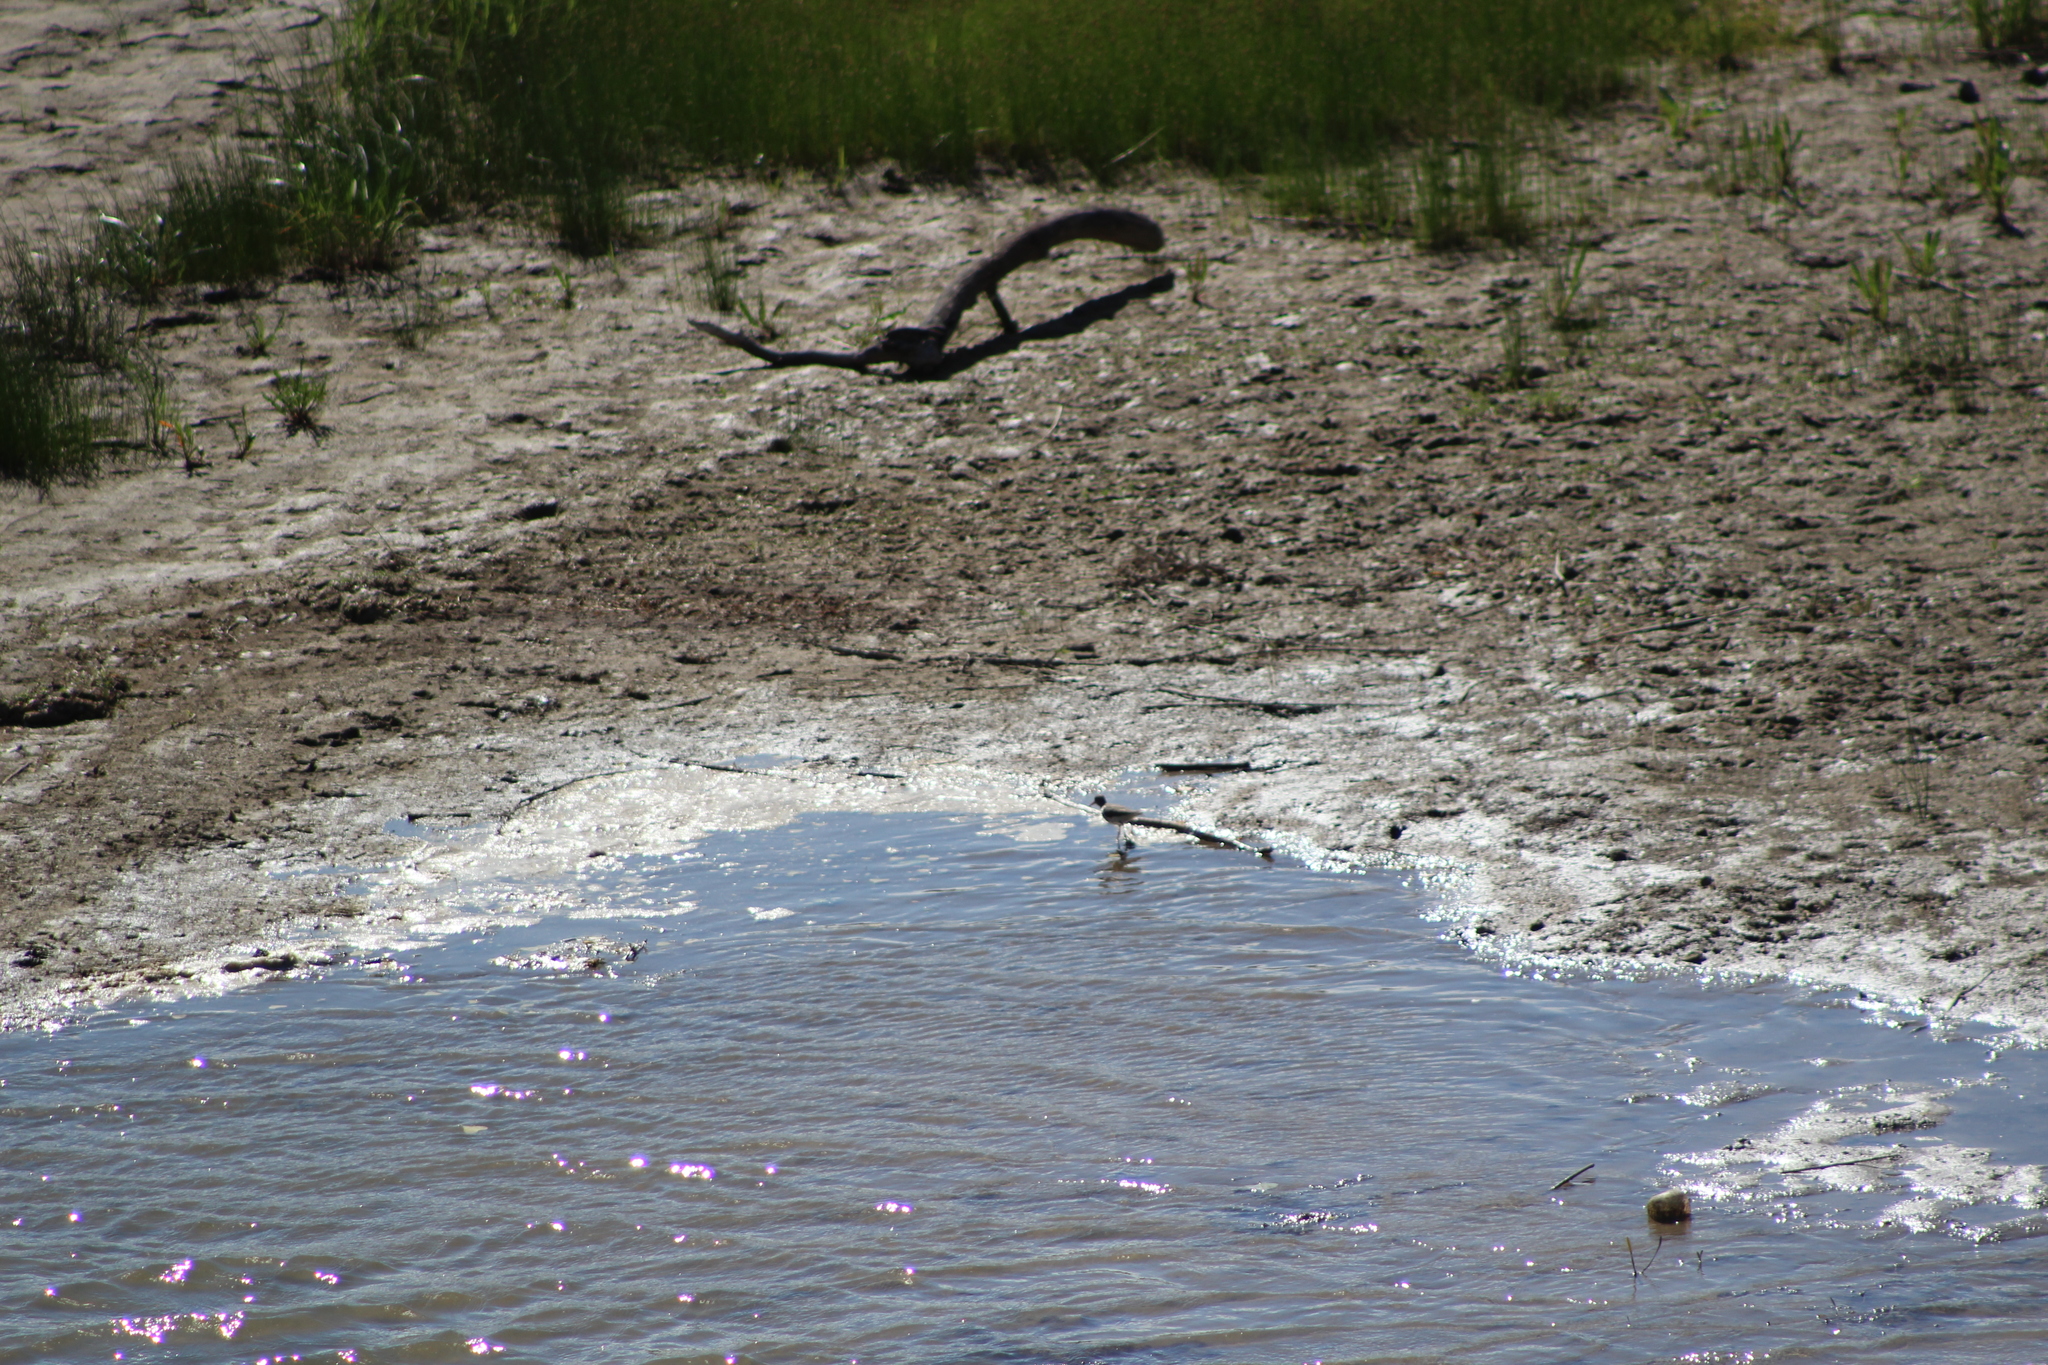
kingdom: Animalia
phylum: Chordata
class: Aves
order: Charadriiformes
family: Scolopacidae
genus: Actitis
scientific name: Actitis macularius
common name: Spotted sandpiper
